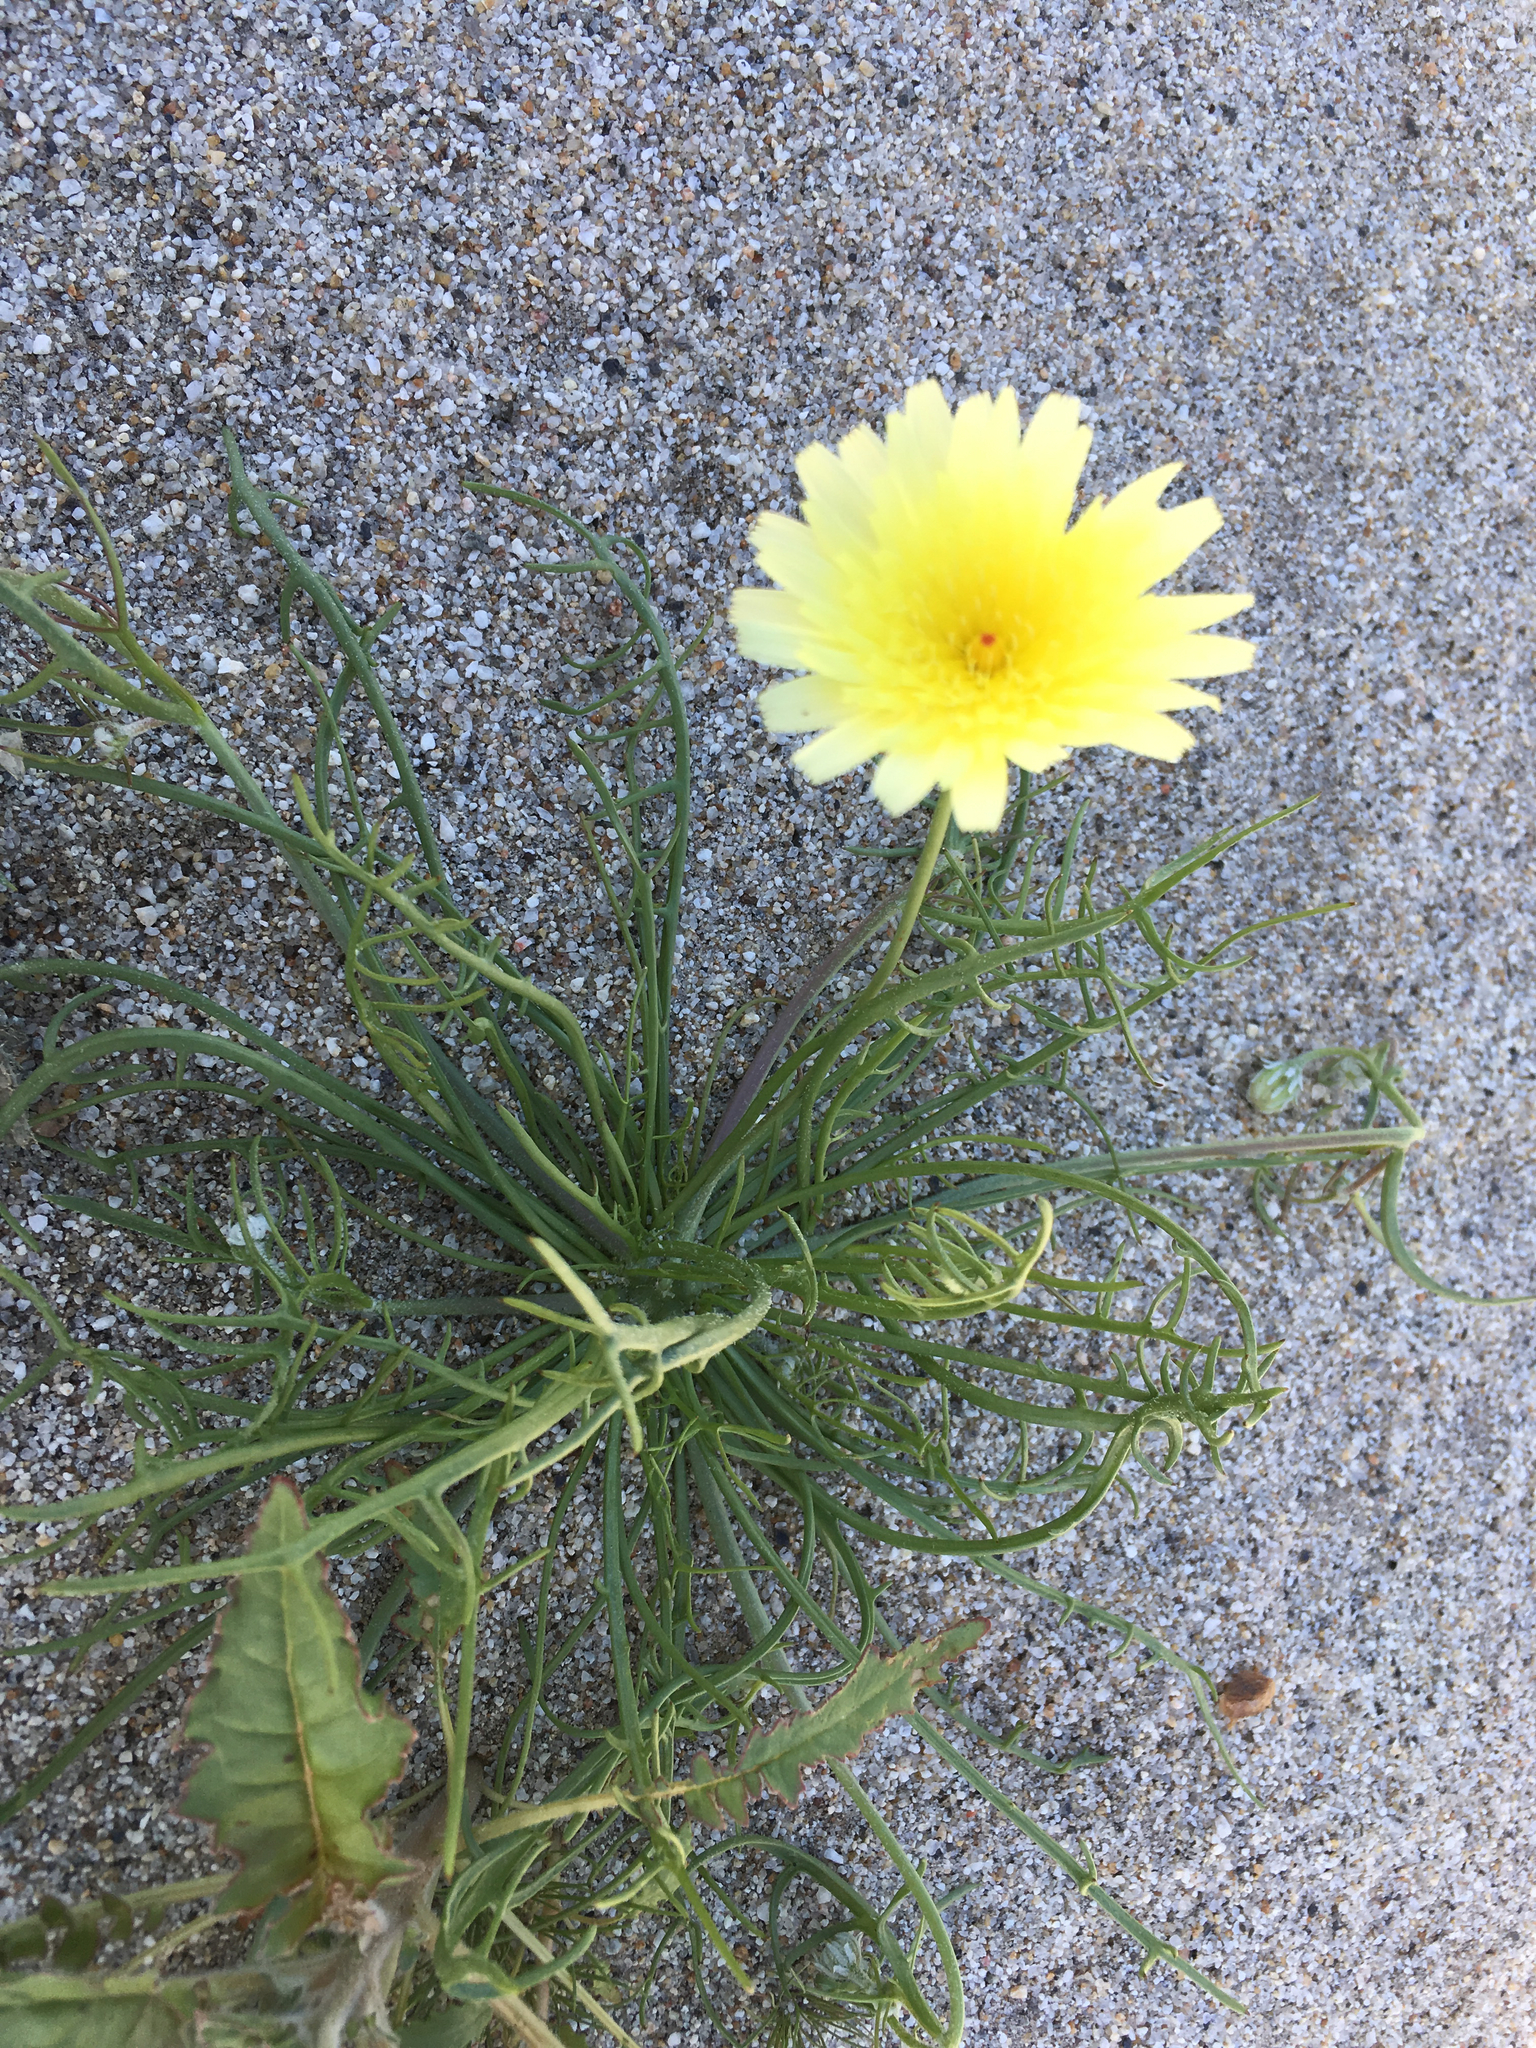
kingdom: Plantae
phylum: Tracheophyta
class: Magnoliopsida
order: Asterales
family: Asteraceae
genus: Malacothrix
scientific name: Malacothrix glabrata
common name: Smooth desert-dandelion
